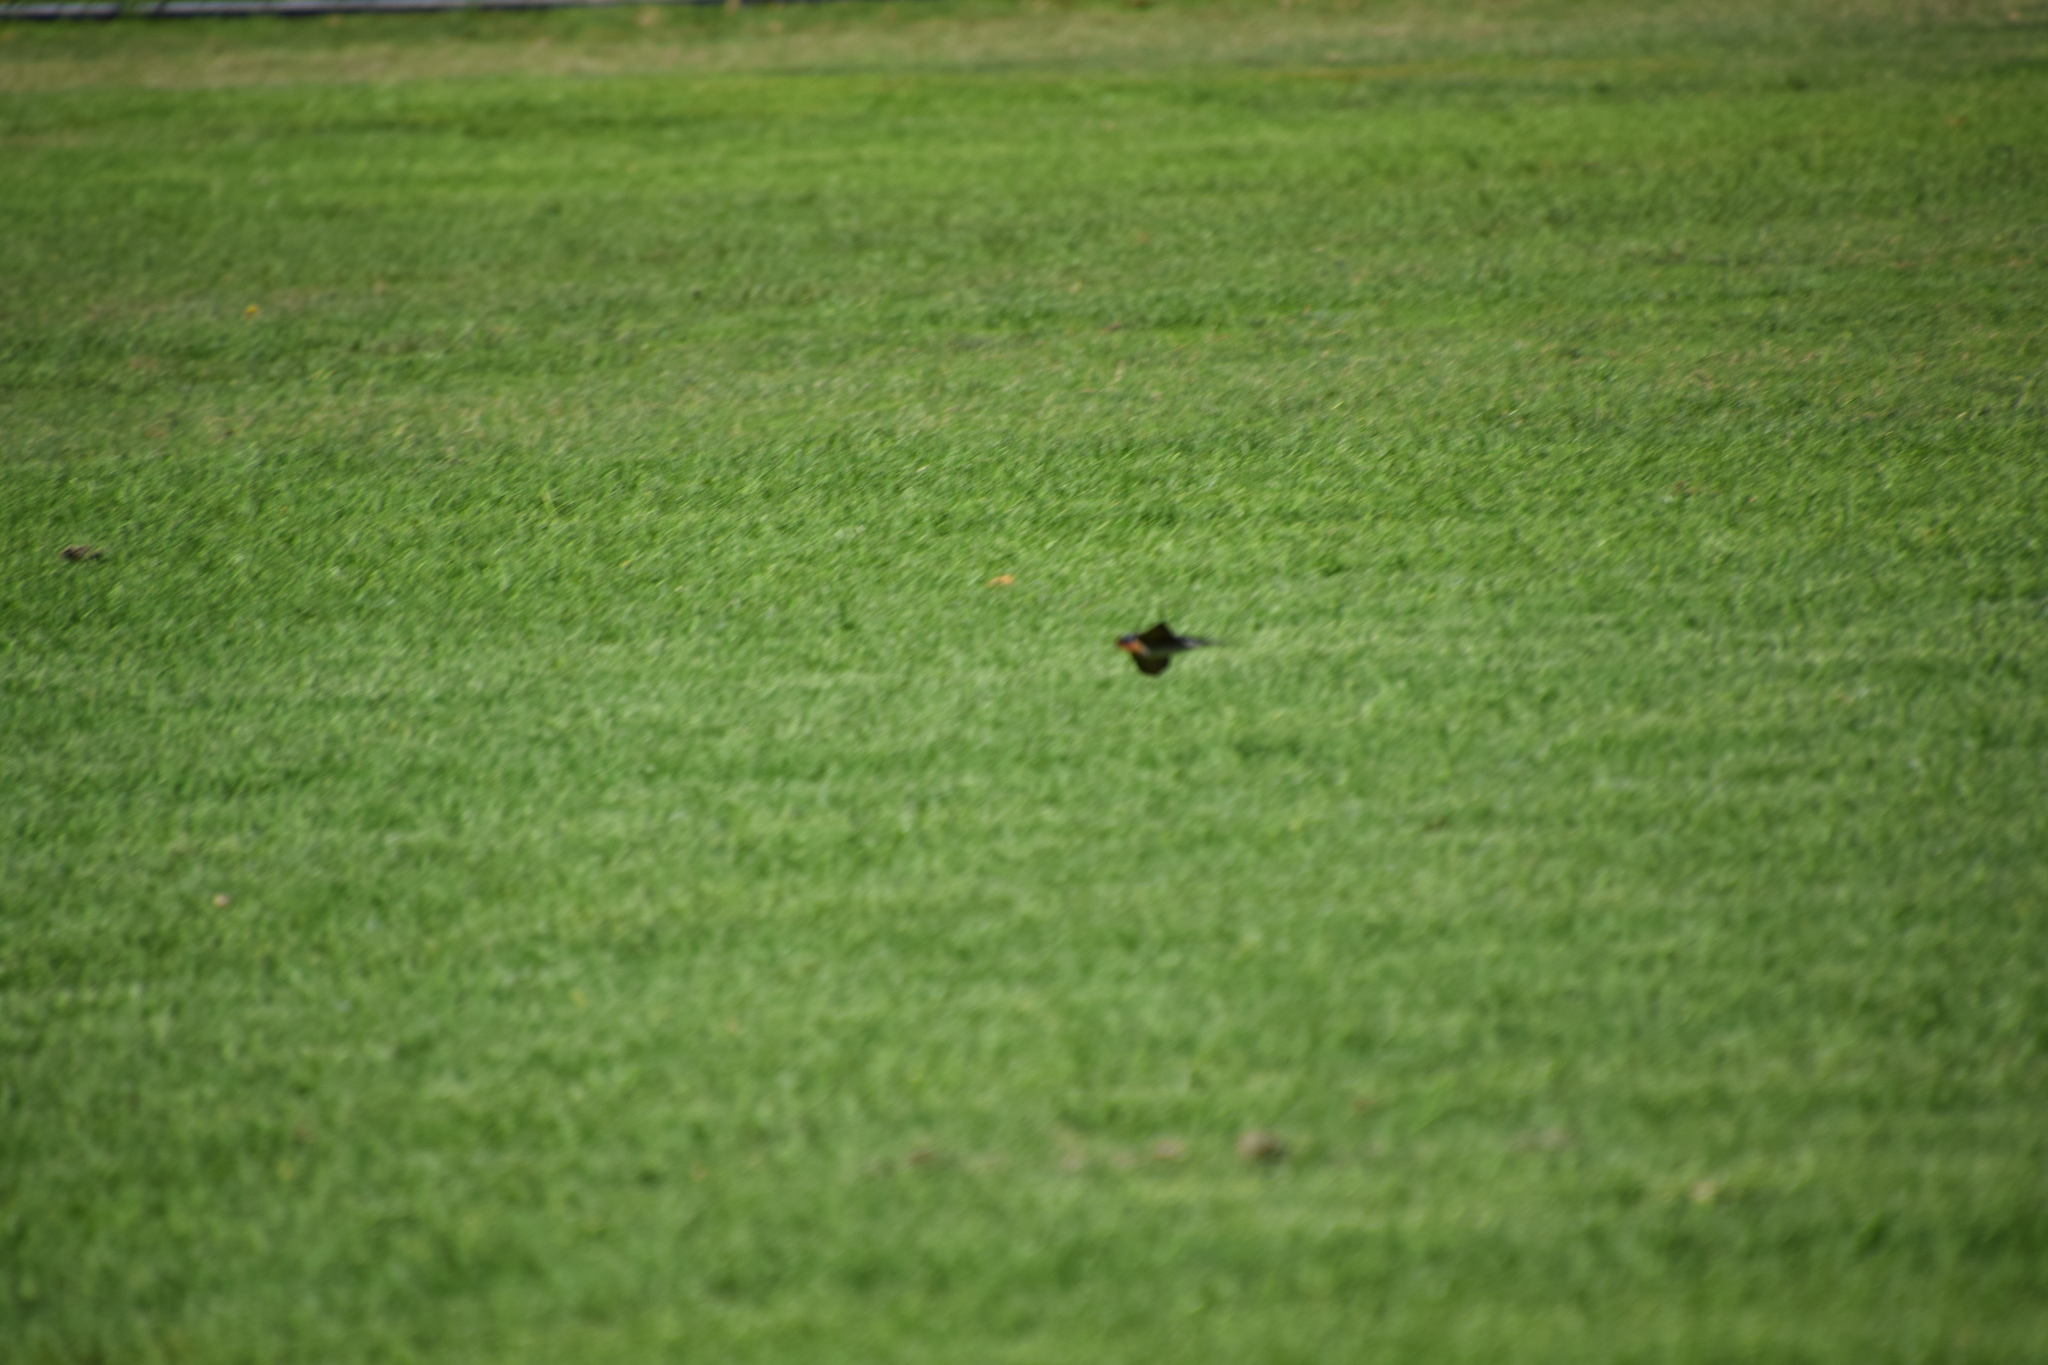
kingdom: Animalia
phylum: Chordata
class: Aves
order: Passeriformes
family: Hirundinidae
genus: Hirundo
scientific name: Hirundo neoxena
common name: Welcome swallow
